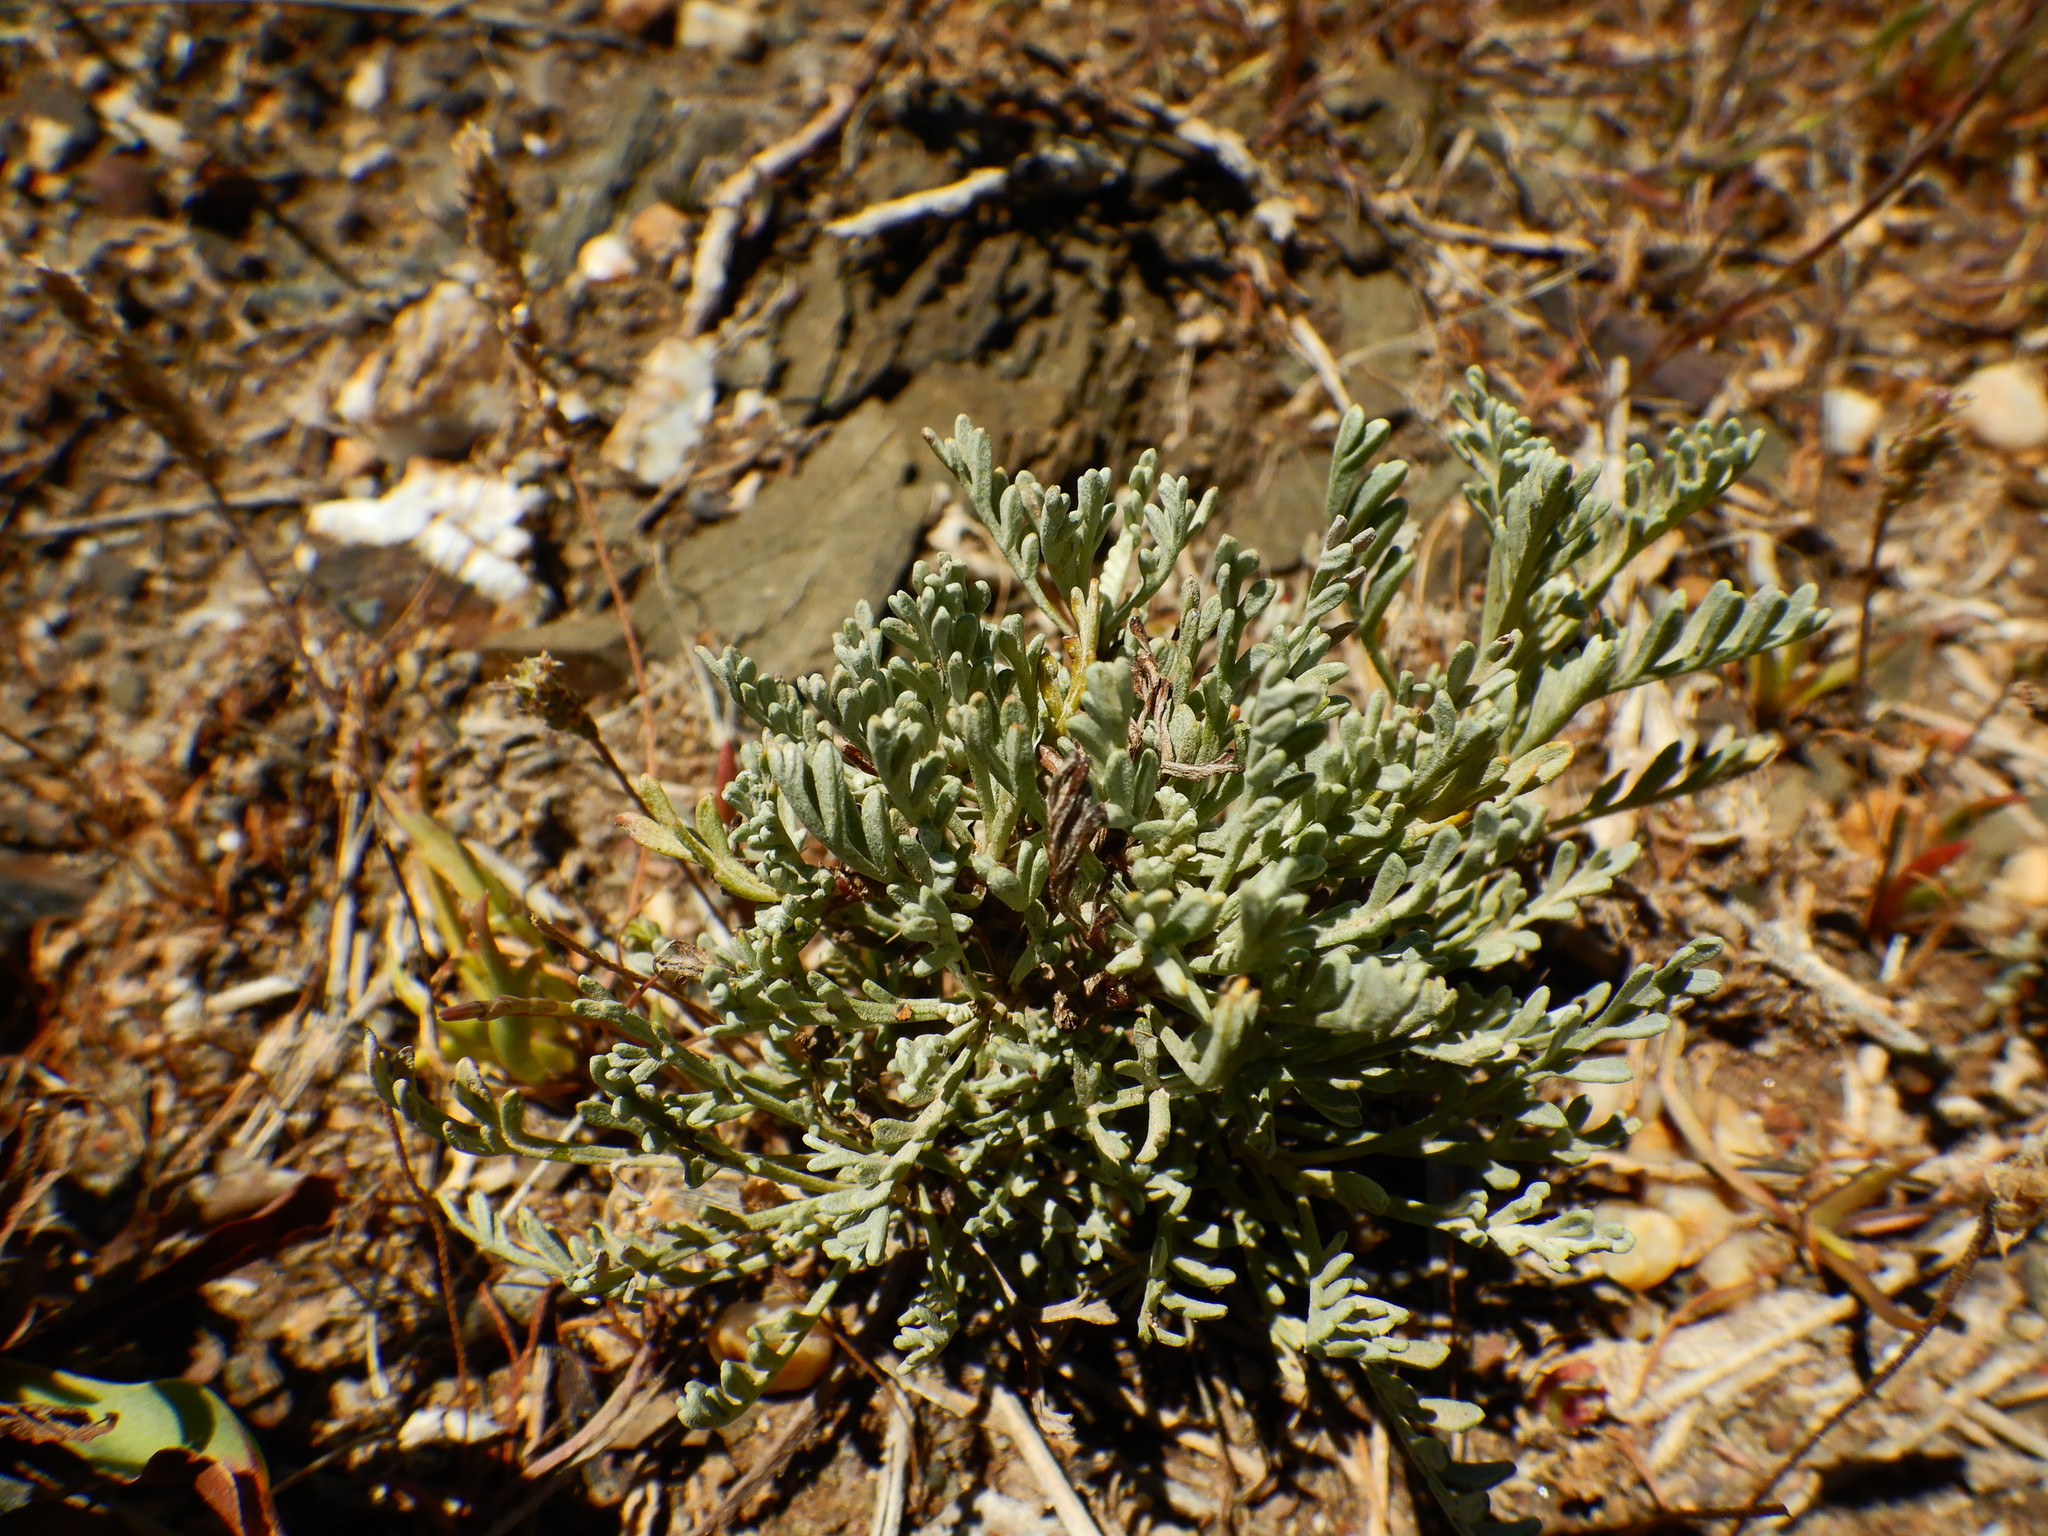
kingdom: Plantae
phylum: Tracheophyta
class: Magnoliopsida
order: Asterales
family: Asteraceae
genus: Artemisia
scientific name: Artemisia caerulescens
